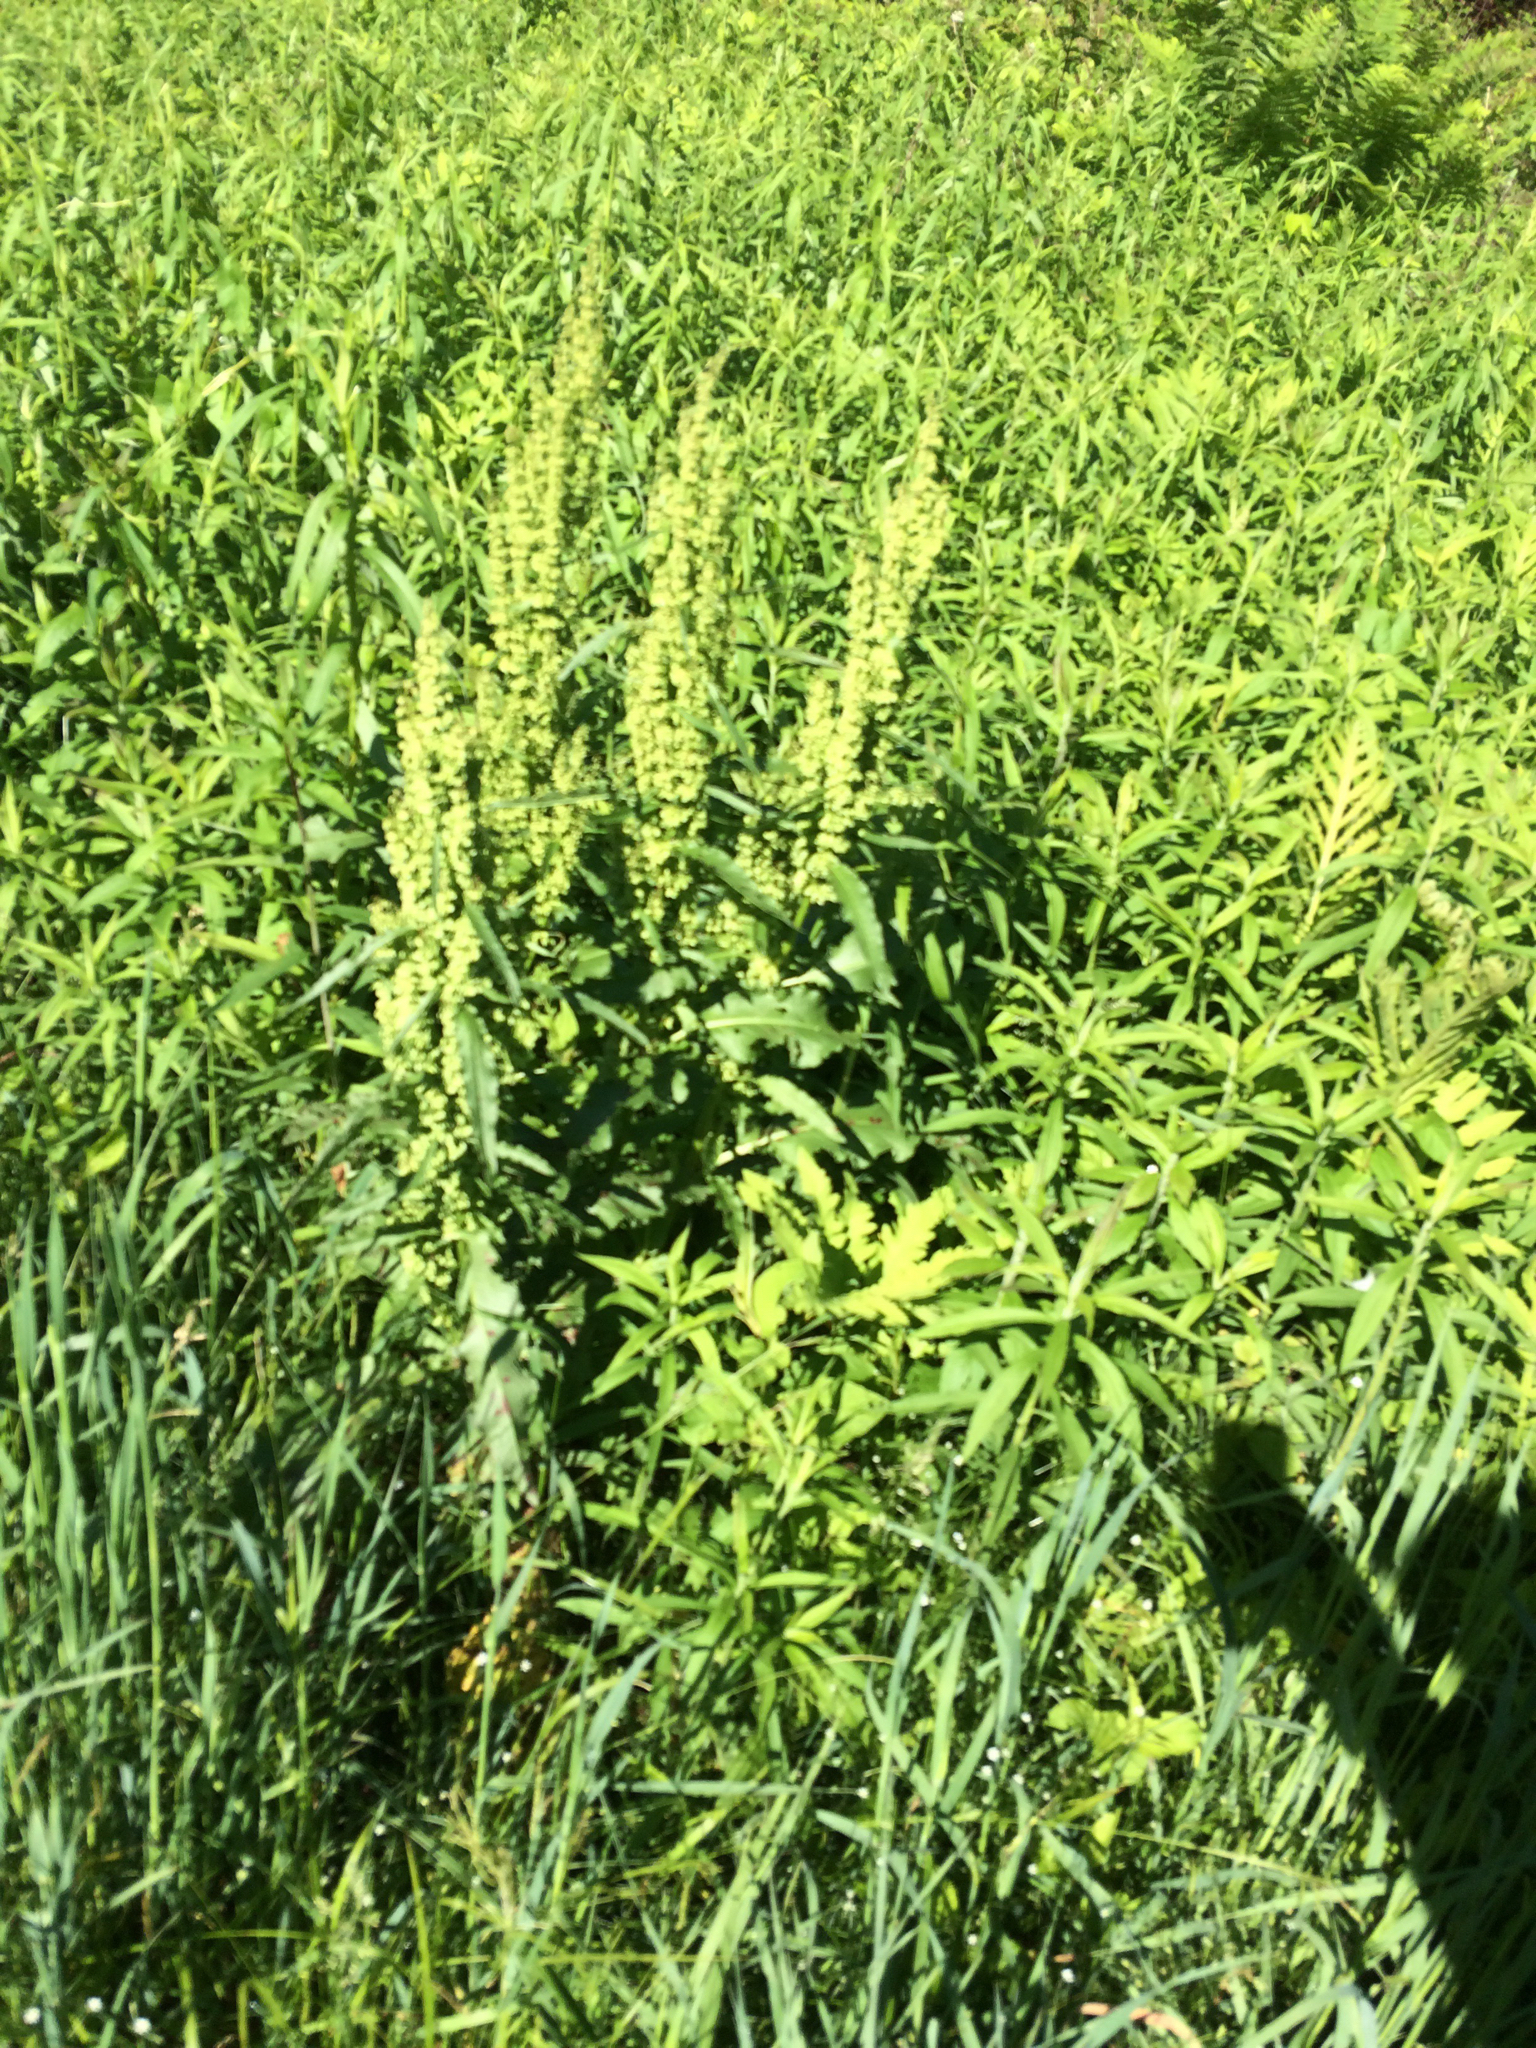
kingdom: Plantae
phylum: Tracheophyta
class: Magnoliopsida
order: Caryophyllales
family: Polygonaceae
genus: Rumex
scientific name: Rumex crispus
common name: Curled dock
